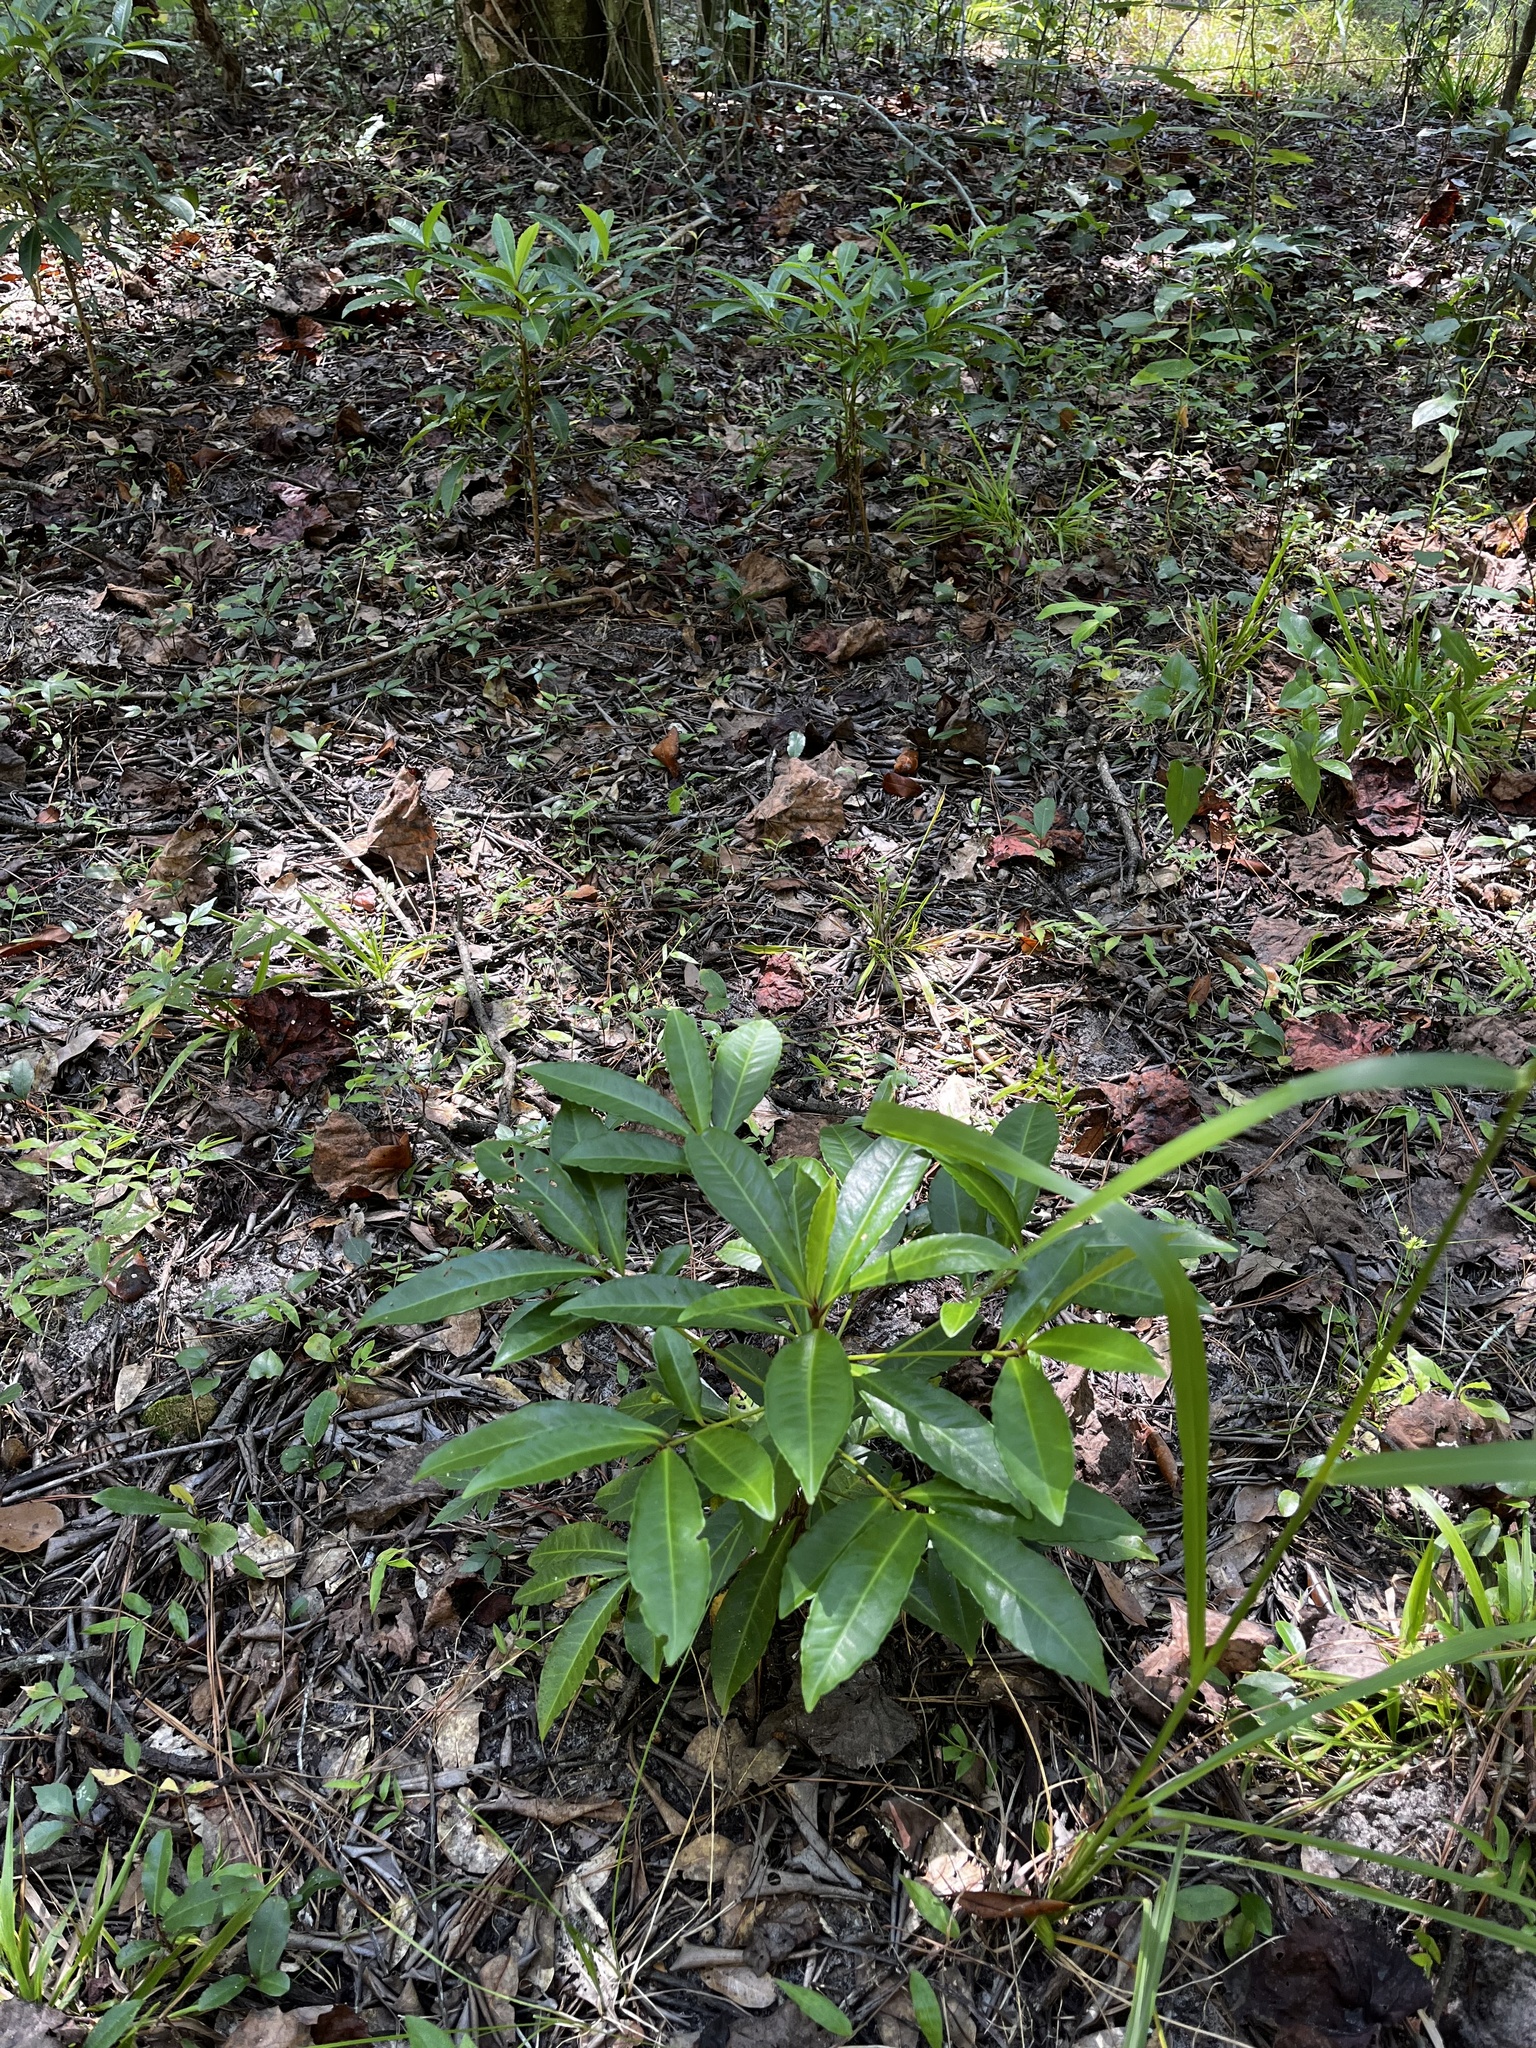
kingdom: Plantae
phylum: Tracheophyta
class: Magnoliopsida
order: Ericales
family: Primulaceae
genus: Ardisia
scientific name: Ardisia crenata
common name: Hen's eyes
